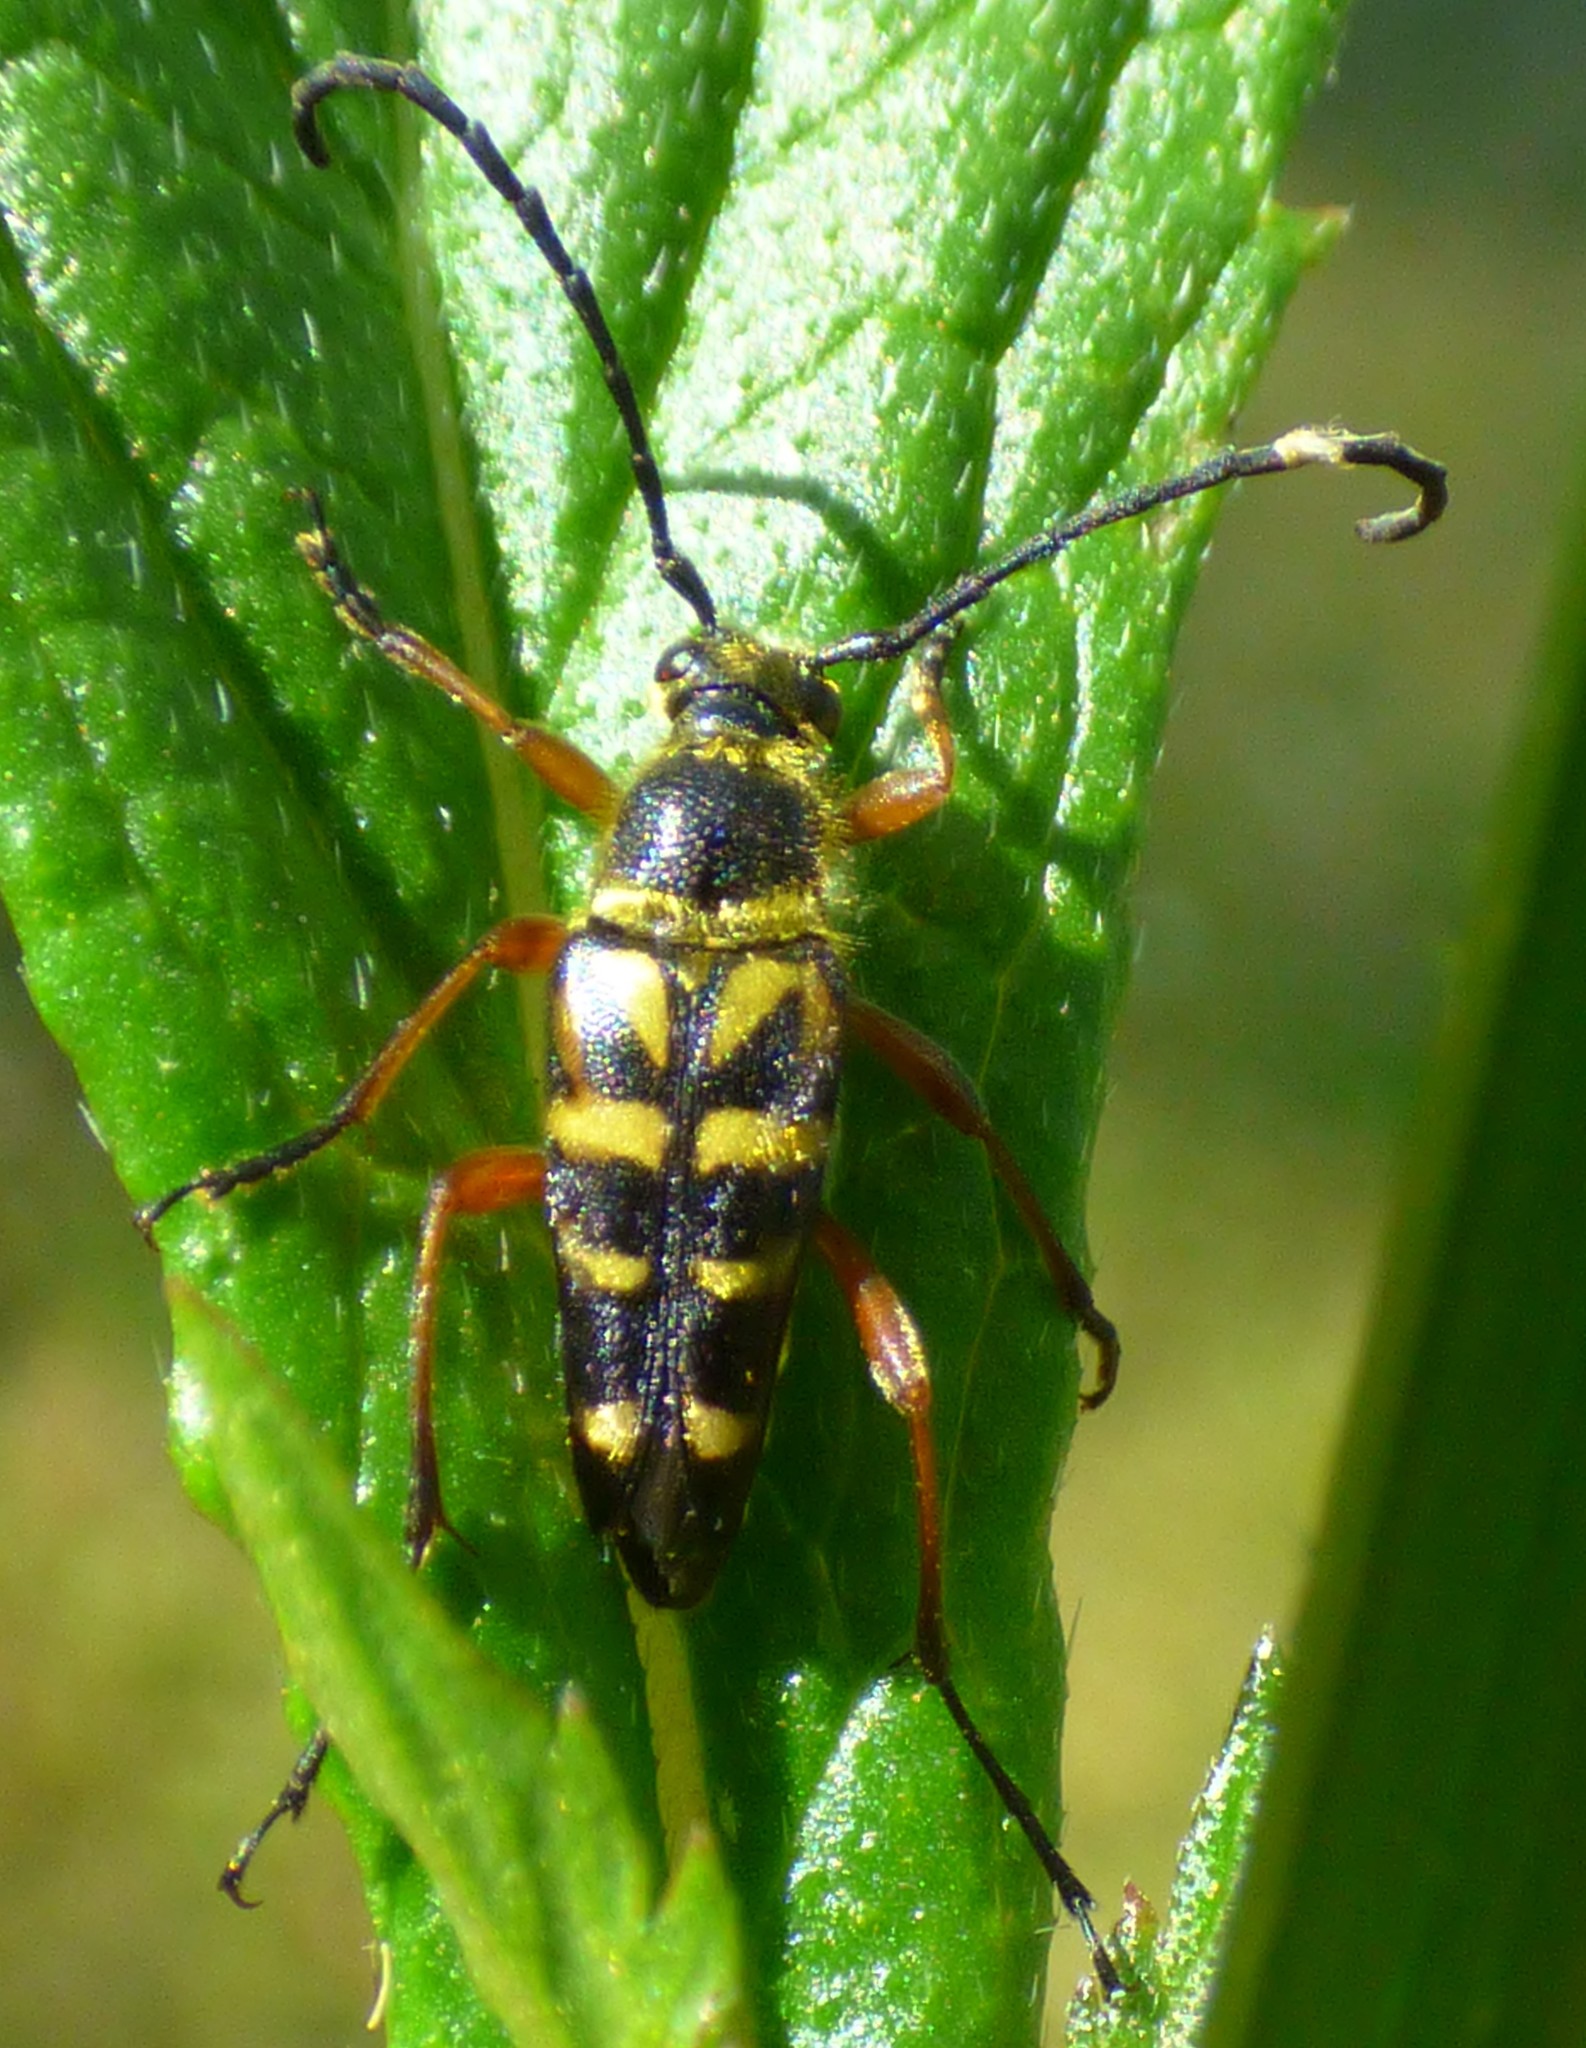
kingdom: Animalia
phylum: Arthropoda
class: Insecta
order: Coleoptera
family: Cerambycidae
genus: Typocerus
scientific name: Typocerus zebra
